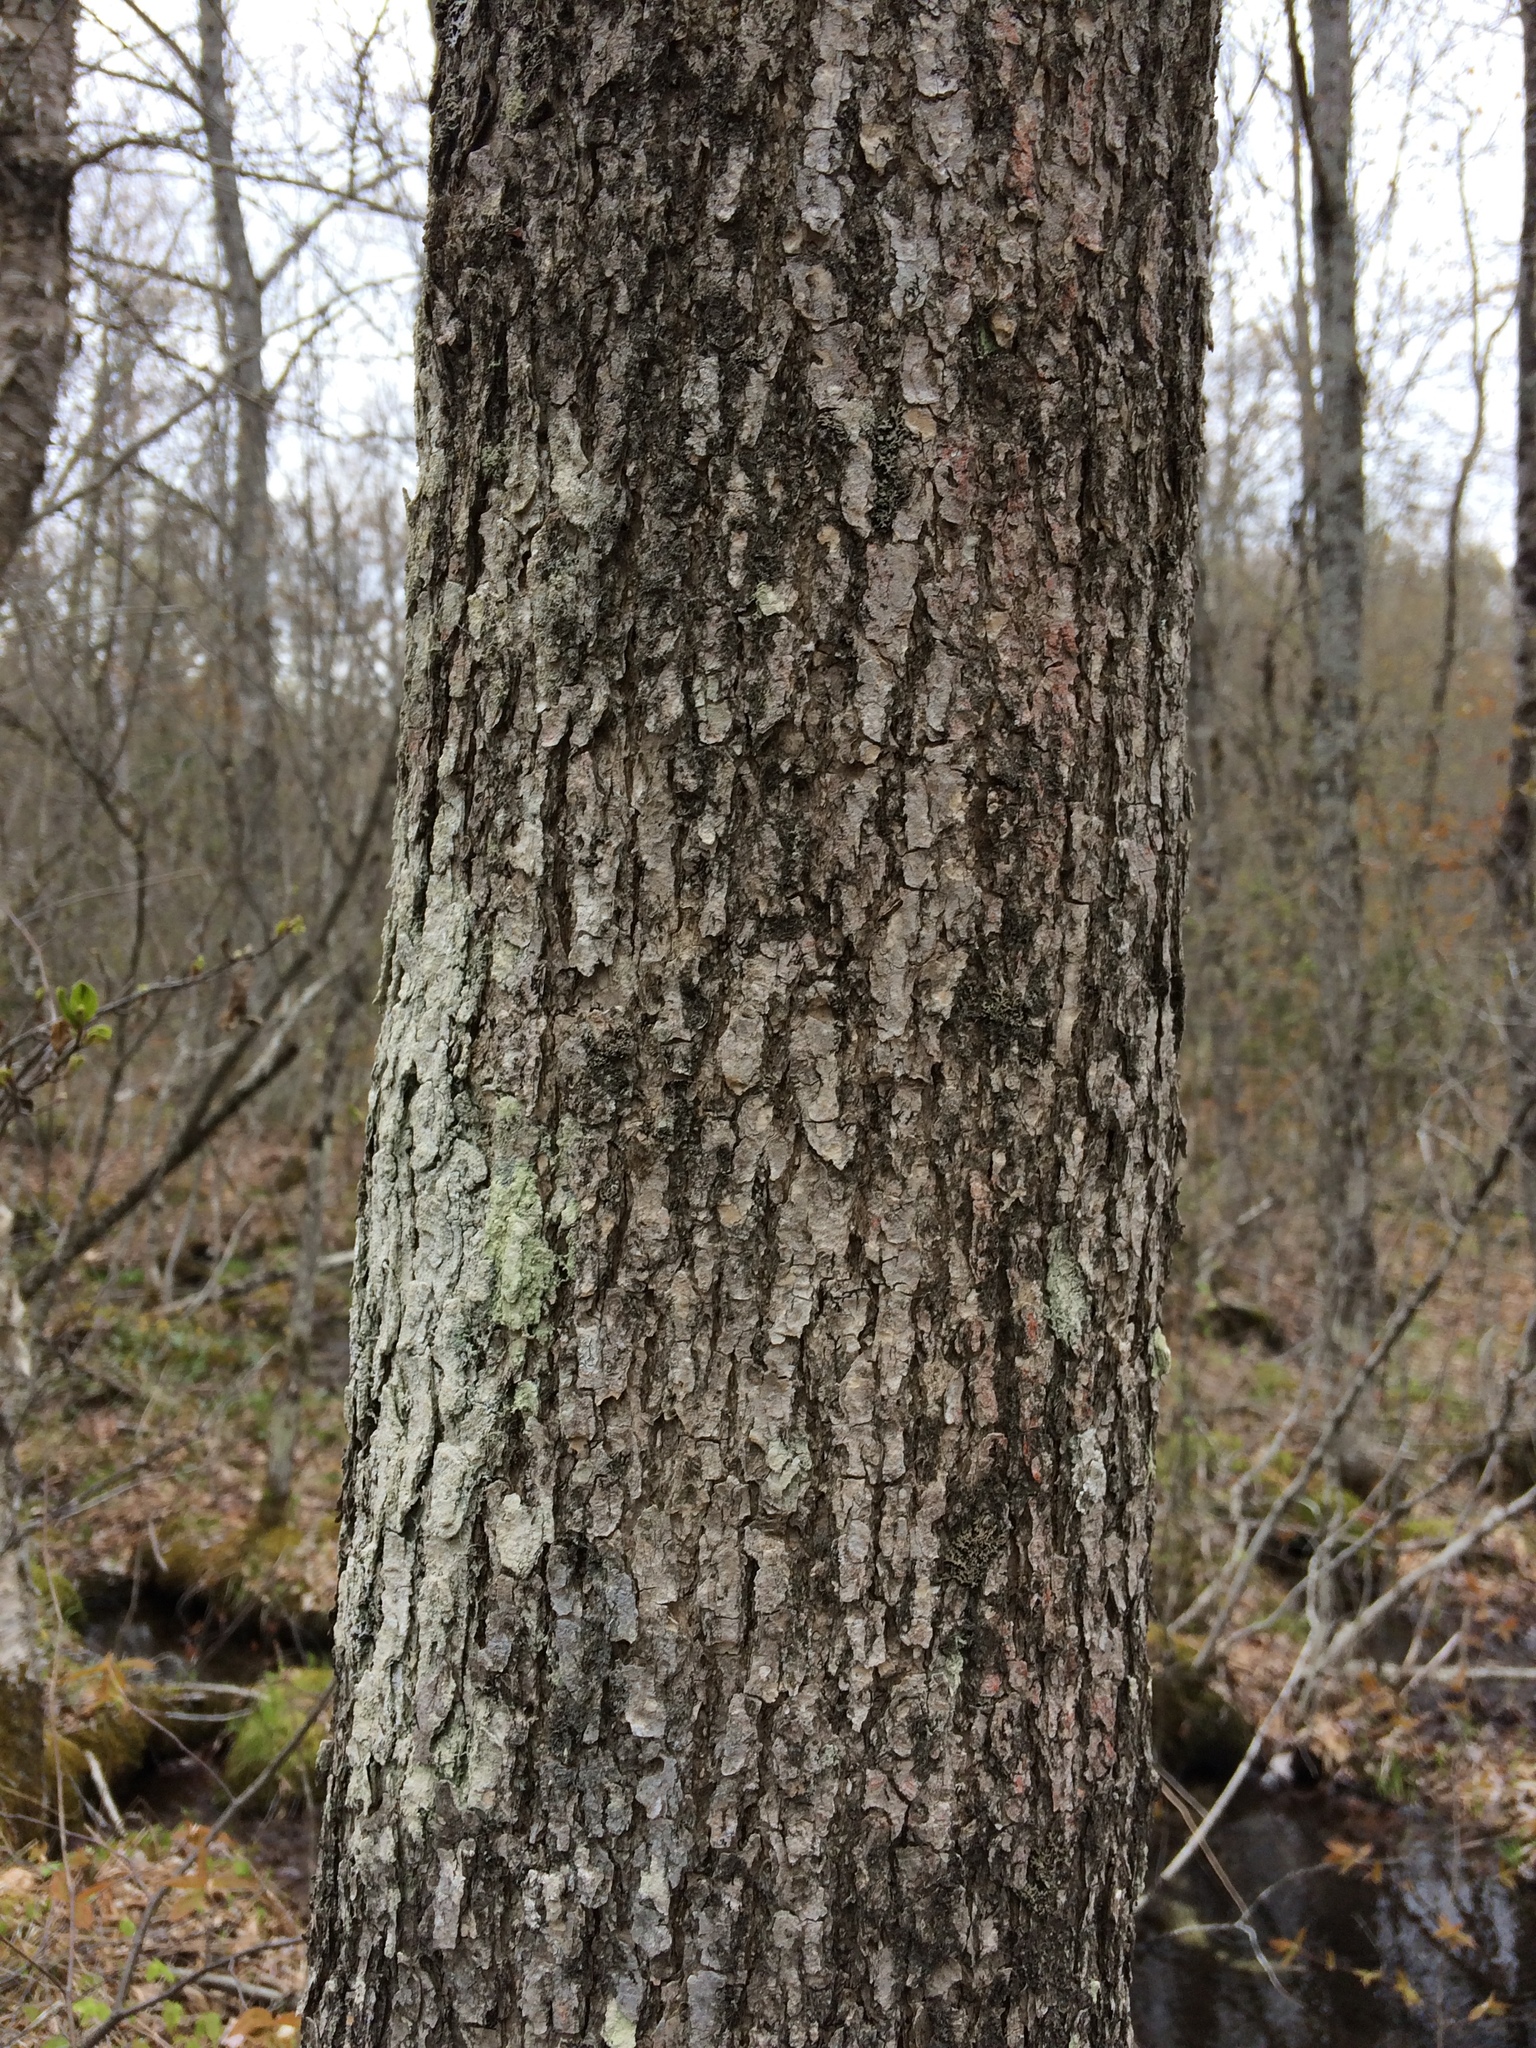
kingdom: Plantae
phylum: Tracheophyta
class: Magnoliopsida
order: Lamiales
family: Oleaceae
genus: Fraxinus
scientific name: Fraxinus nigra
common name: Black ash
